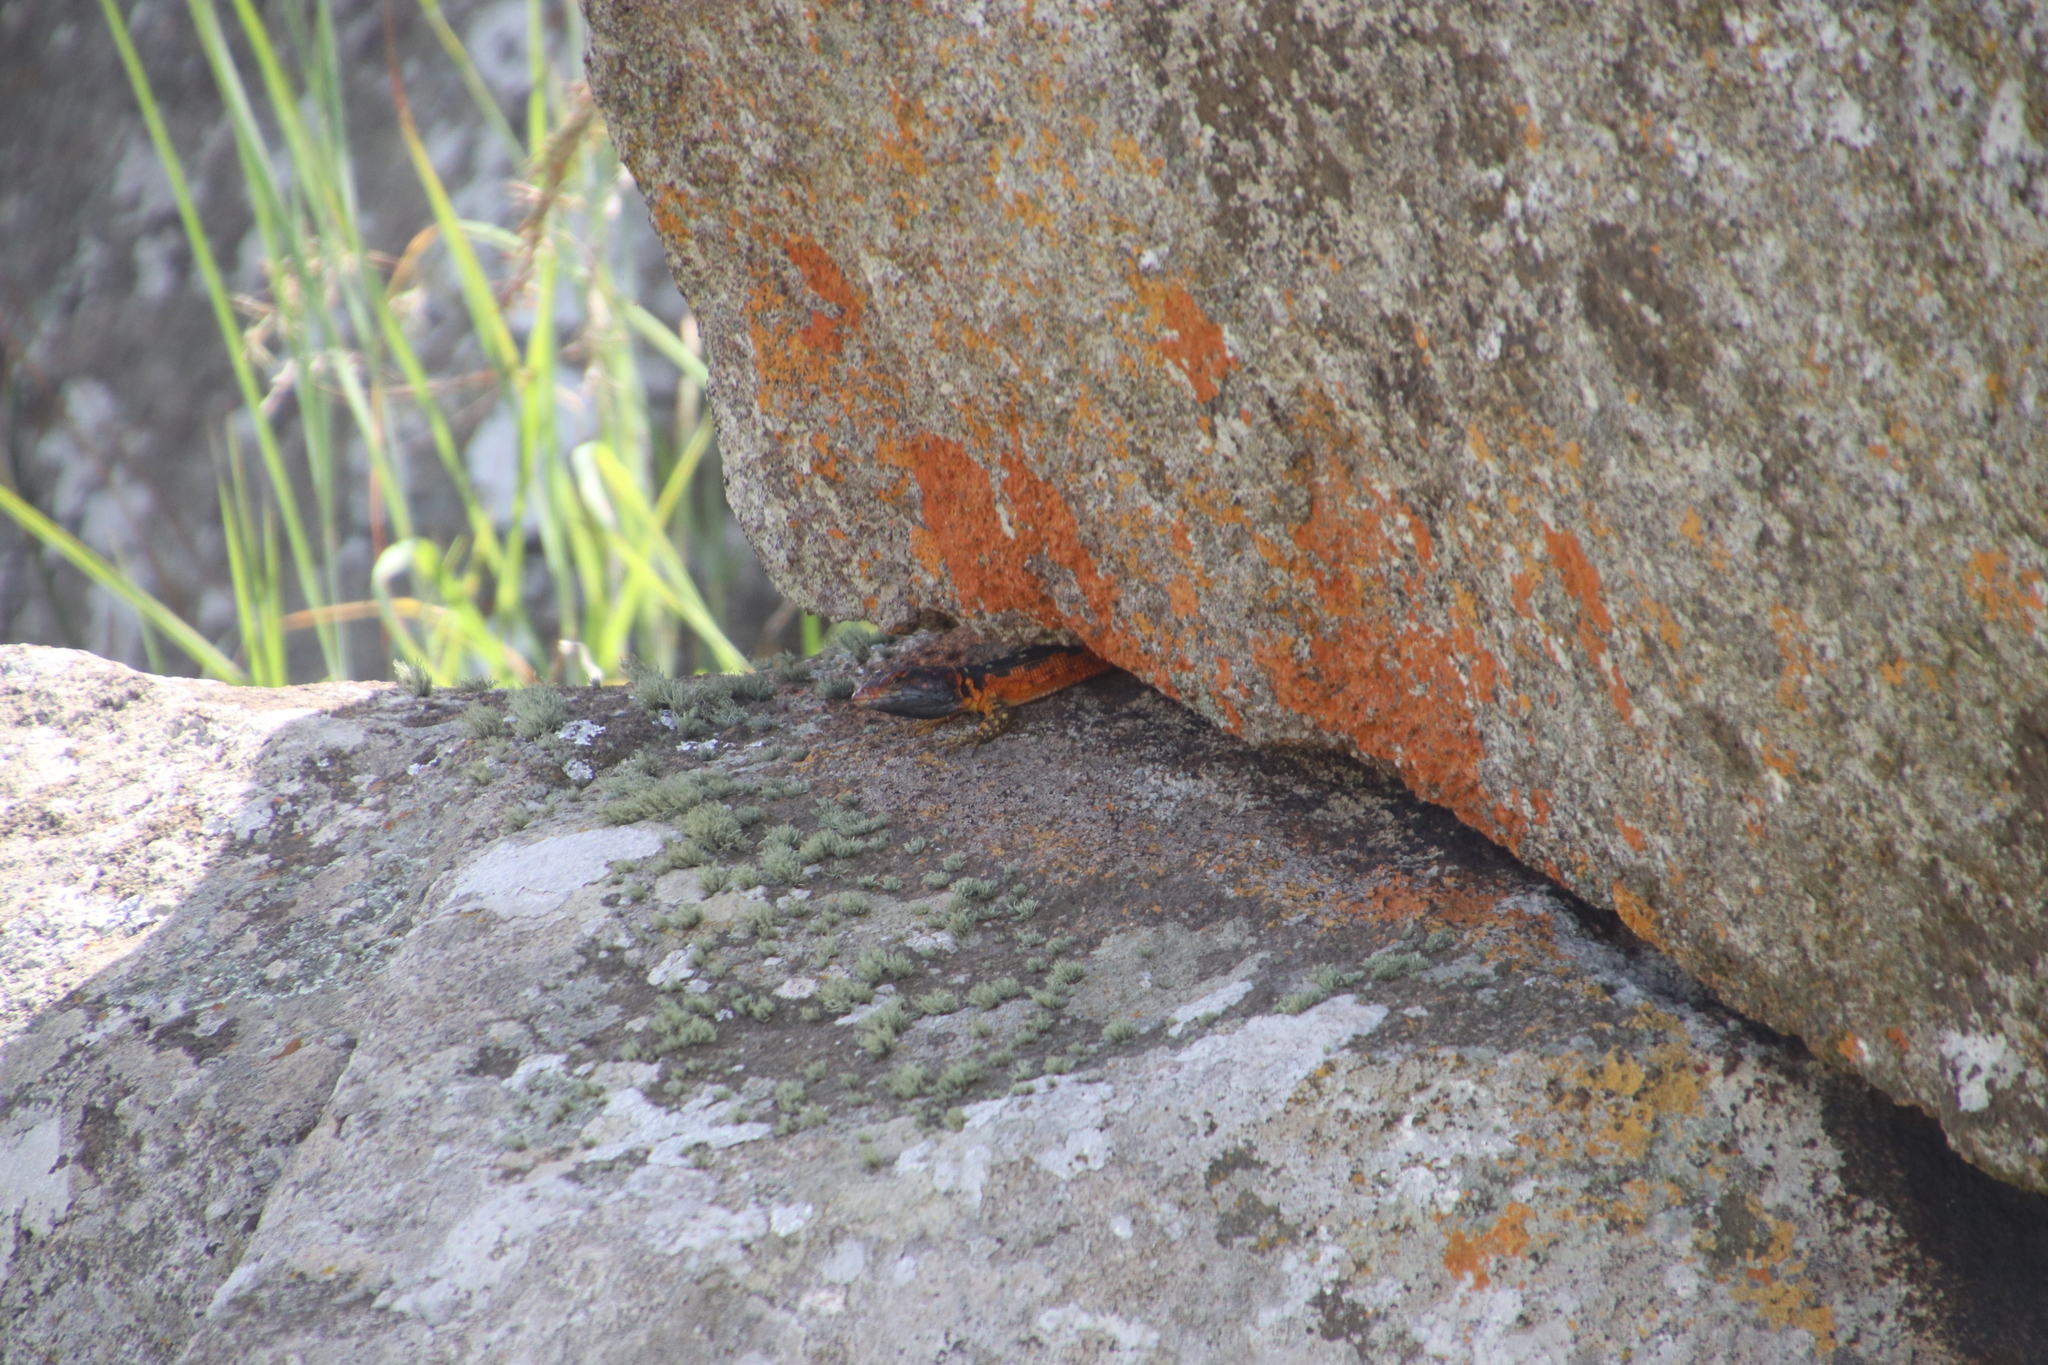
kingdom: Animalia
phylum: Chordata
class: Squamata
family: Cordylidae
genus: Pseudocordylus
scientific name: Pseudocordylus melanotus
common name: Highveld crag lizard
